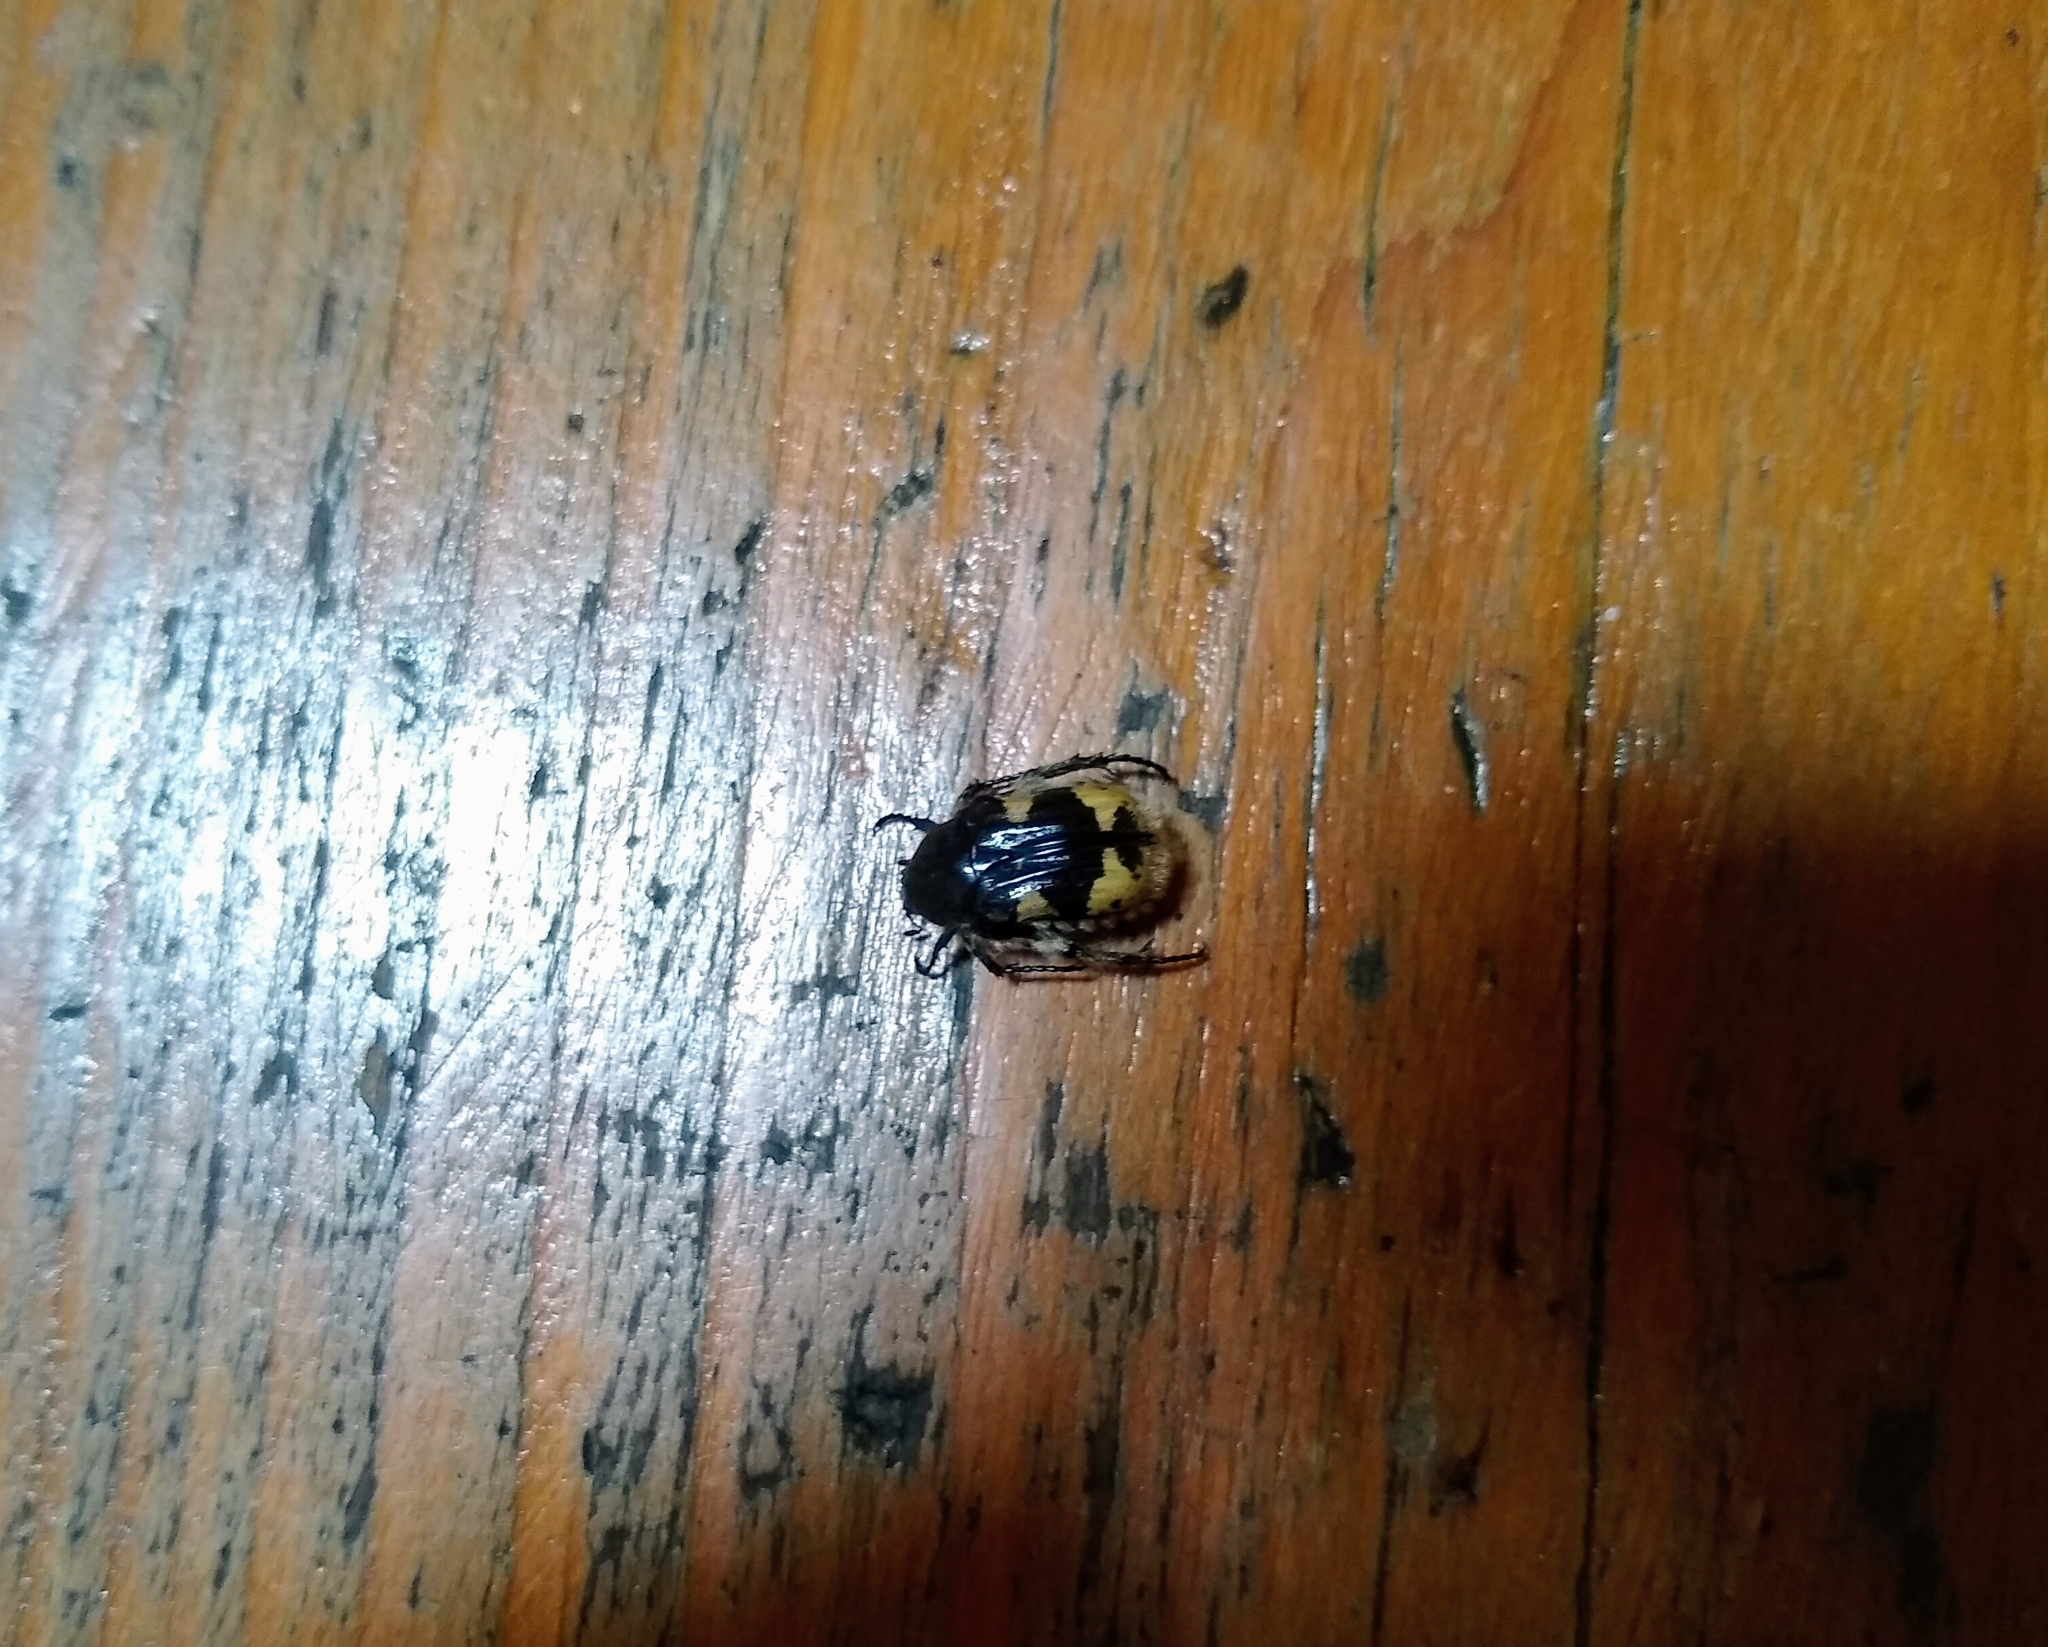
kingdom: Animalia
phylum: Arthropoda
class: Insecta
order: Coleoptera
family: Scarabaeidae
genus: Euphoria
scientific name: Euphoria basalis
